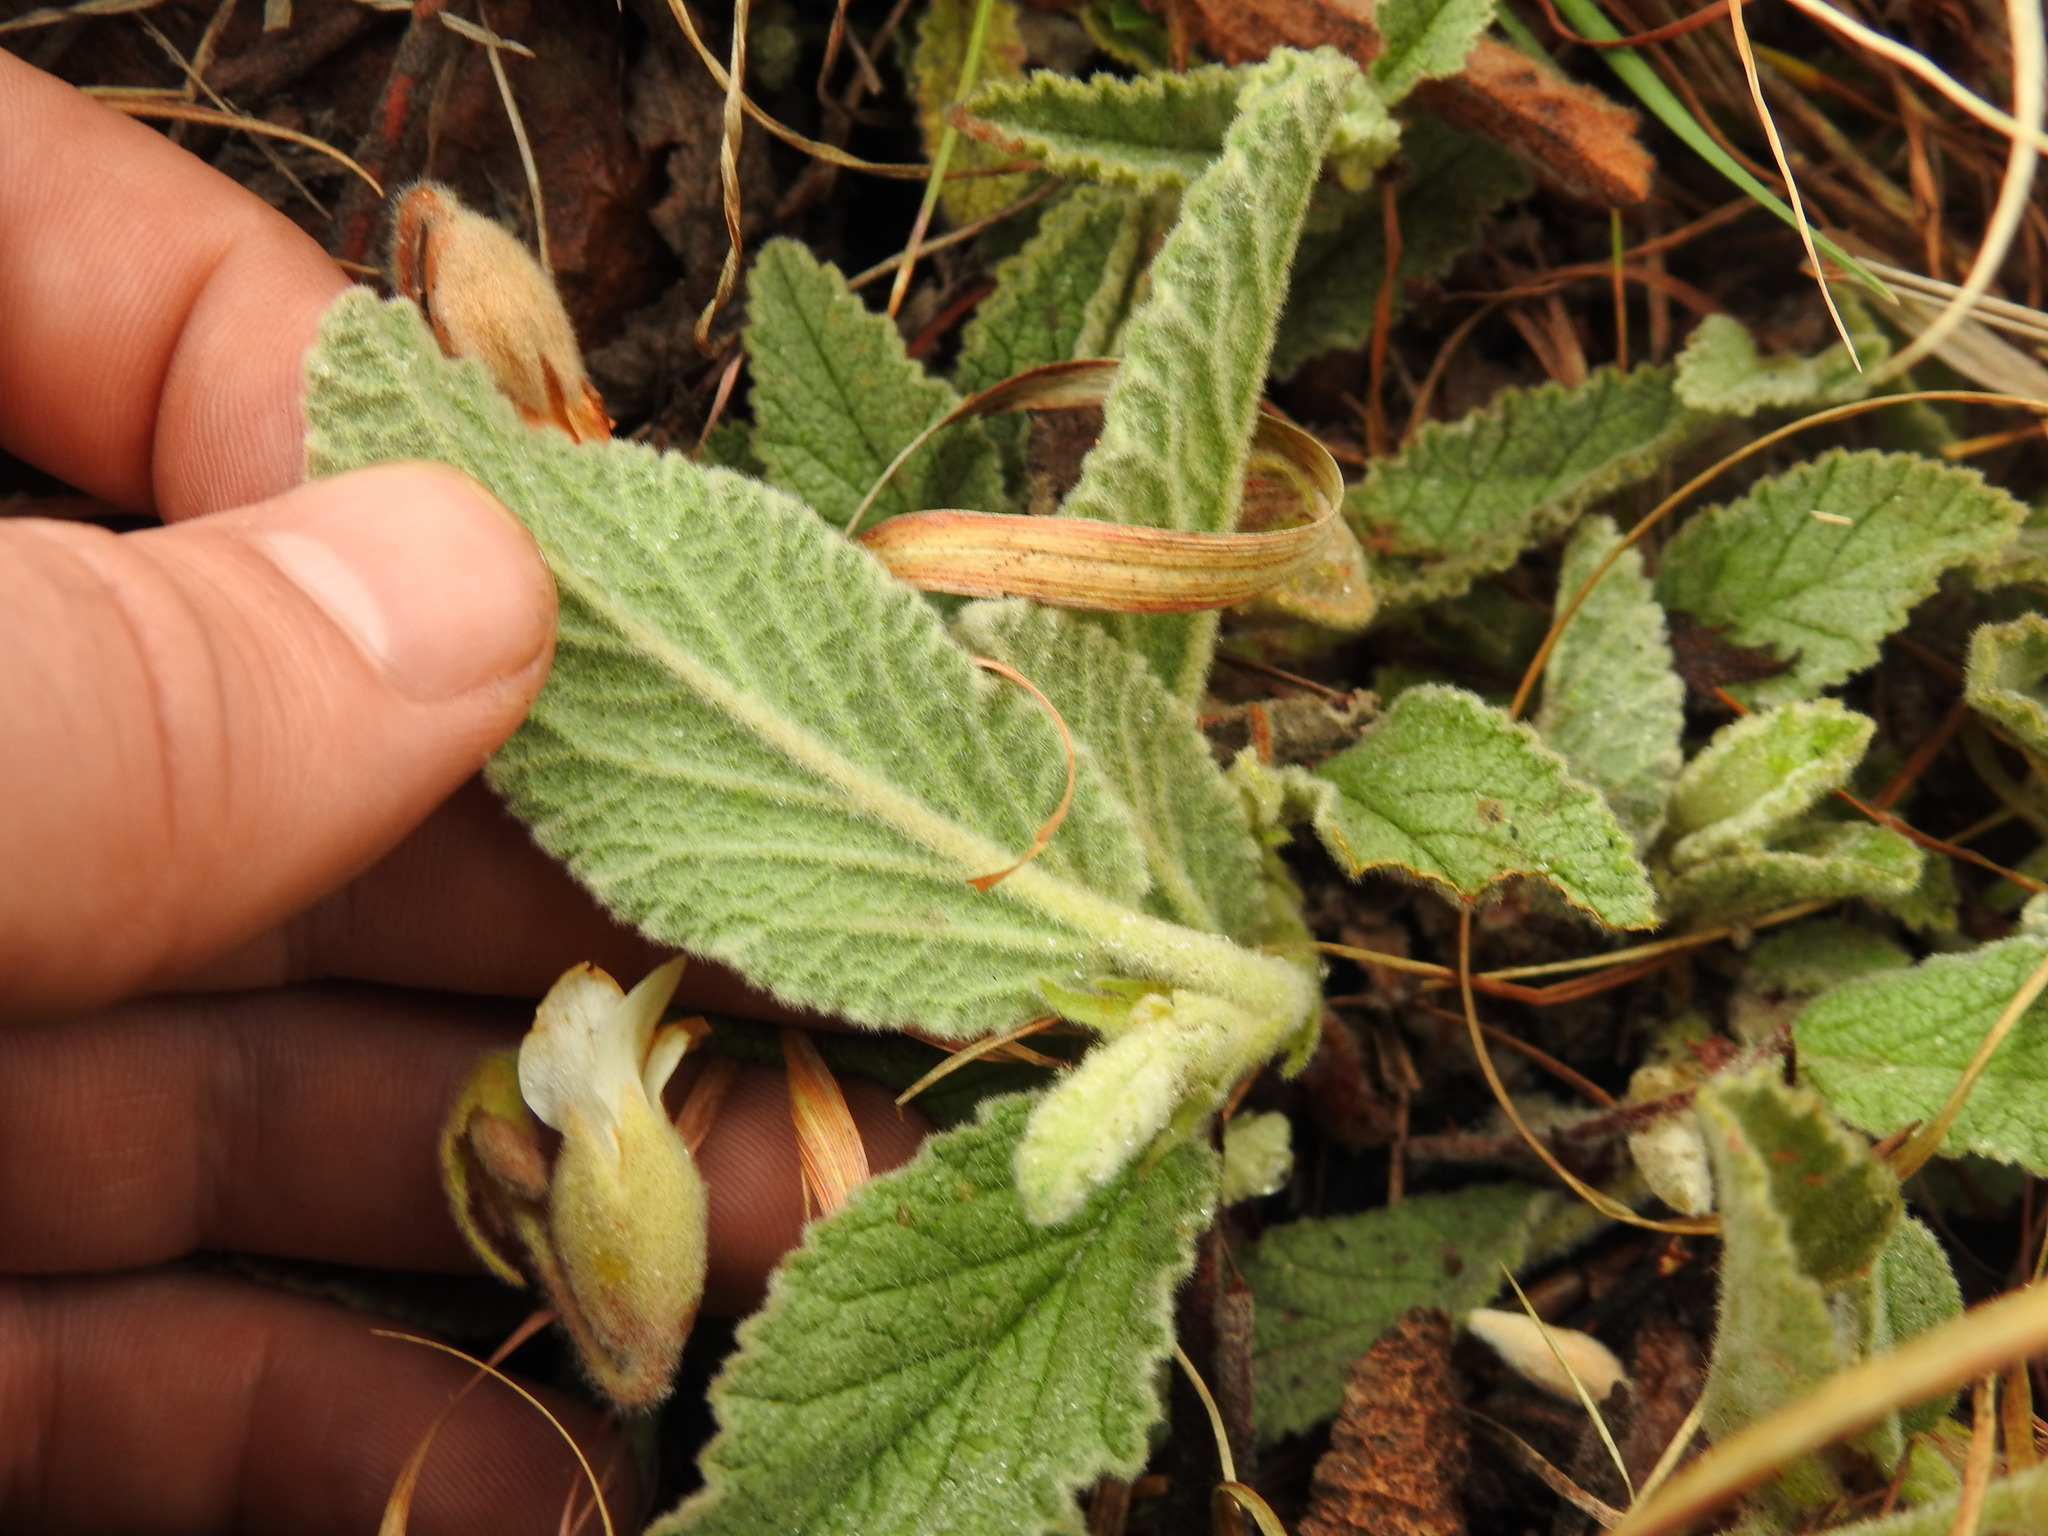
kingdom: Plantae
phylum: Tracheophyta
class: Magnoliopsida
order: Malvales
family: Malvaceae
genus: Hermannia
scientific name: Hermannia geniculata
